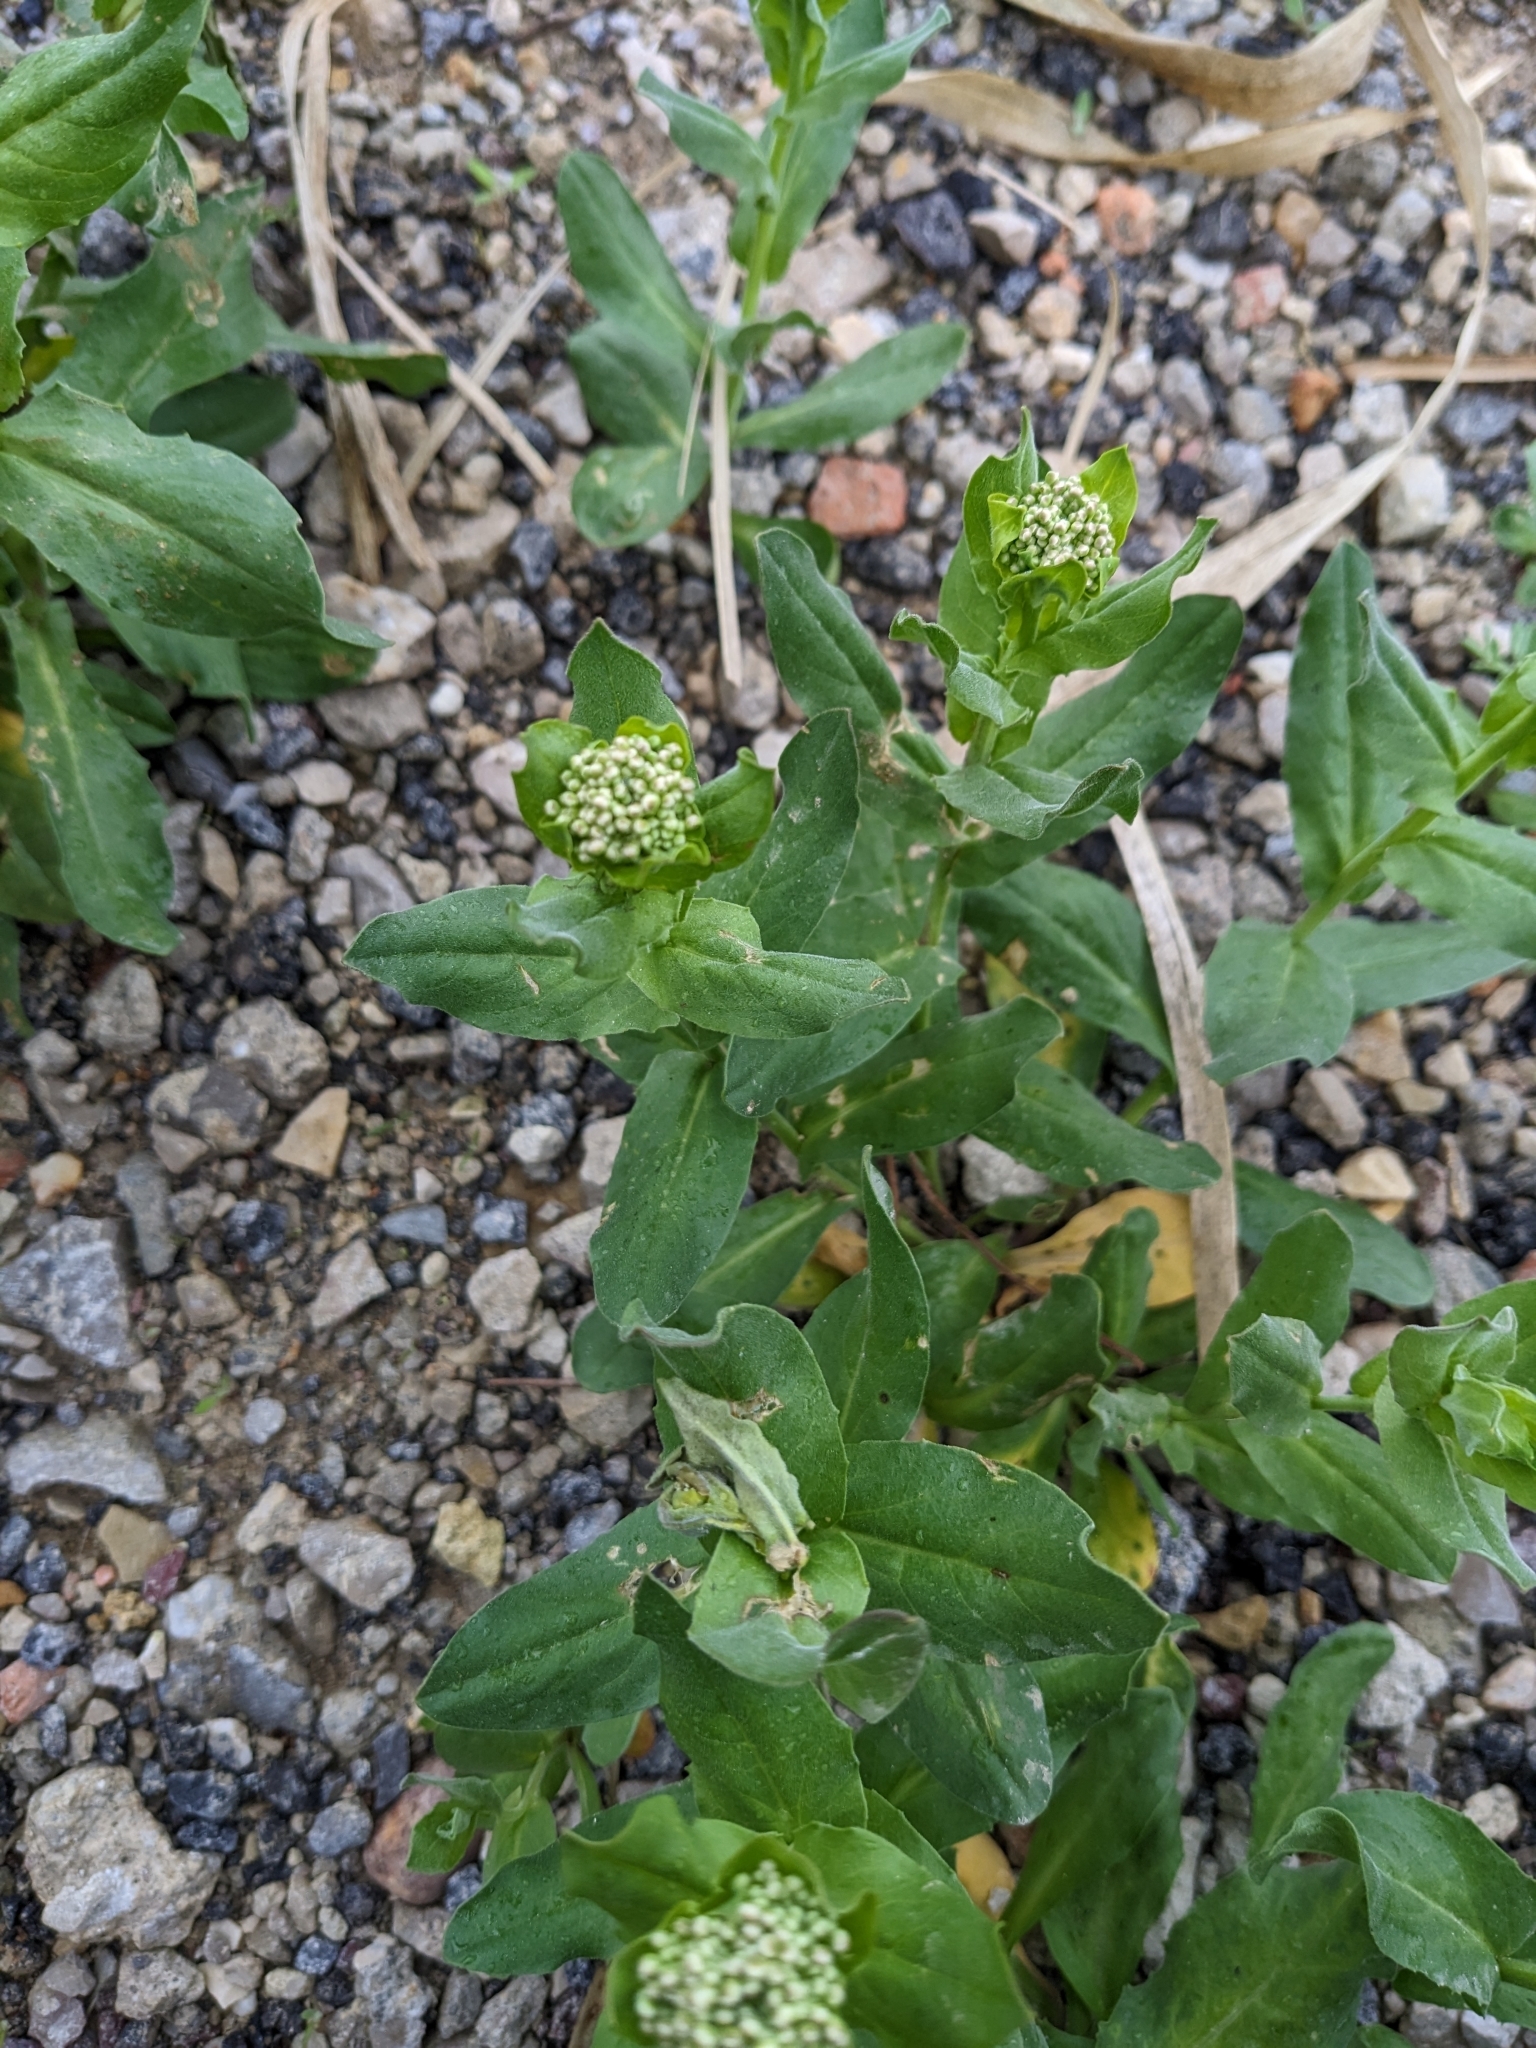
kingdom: Plantae
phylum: Tracheophyta
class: Magnoliopsida
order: Brassicales
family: Brassicaceae
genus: Lepidium
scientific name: Lepidium draba
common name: Hoary cress
